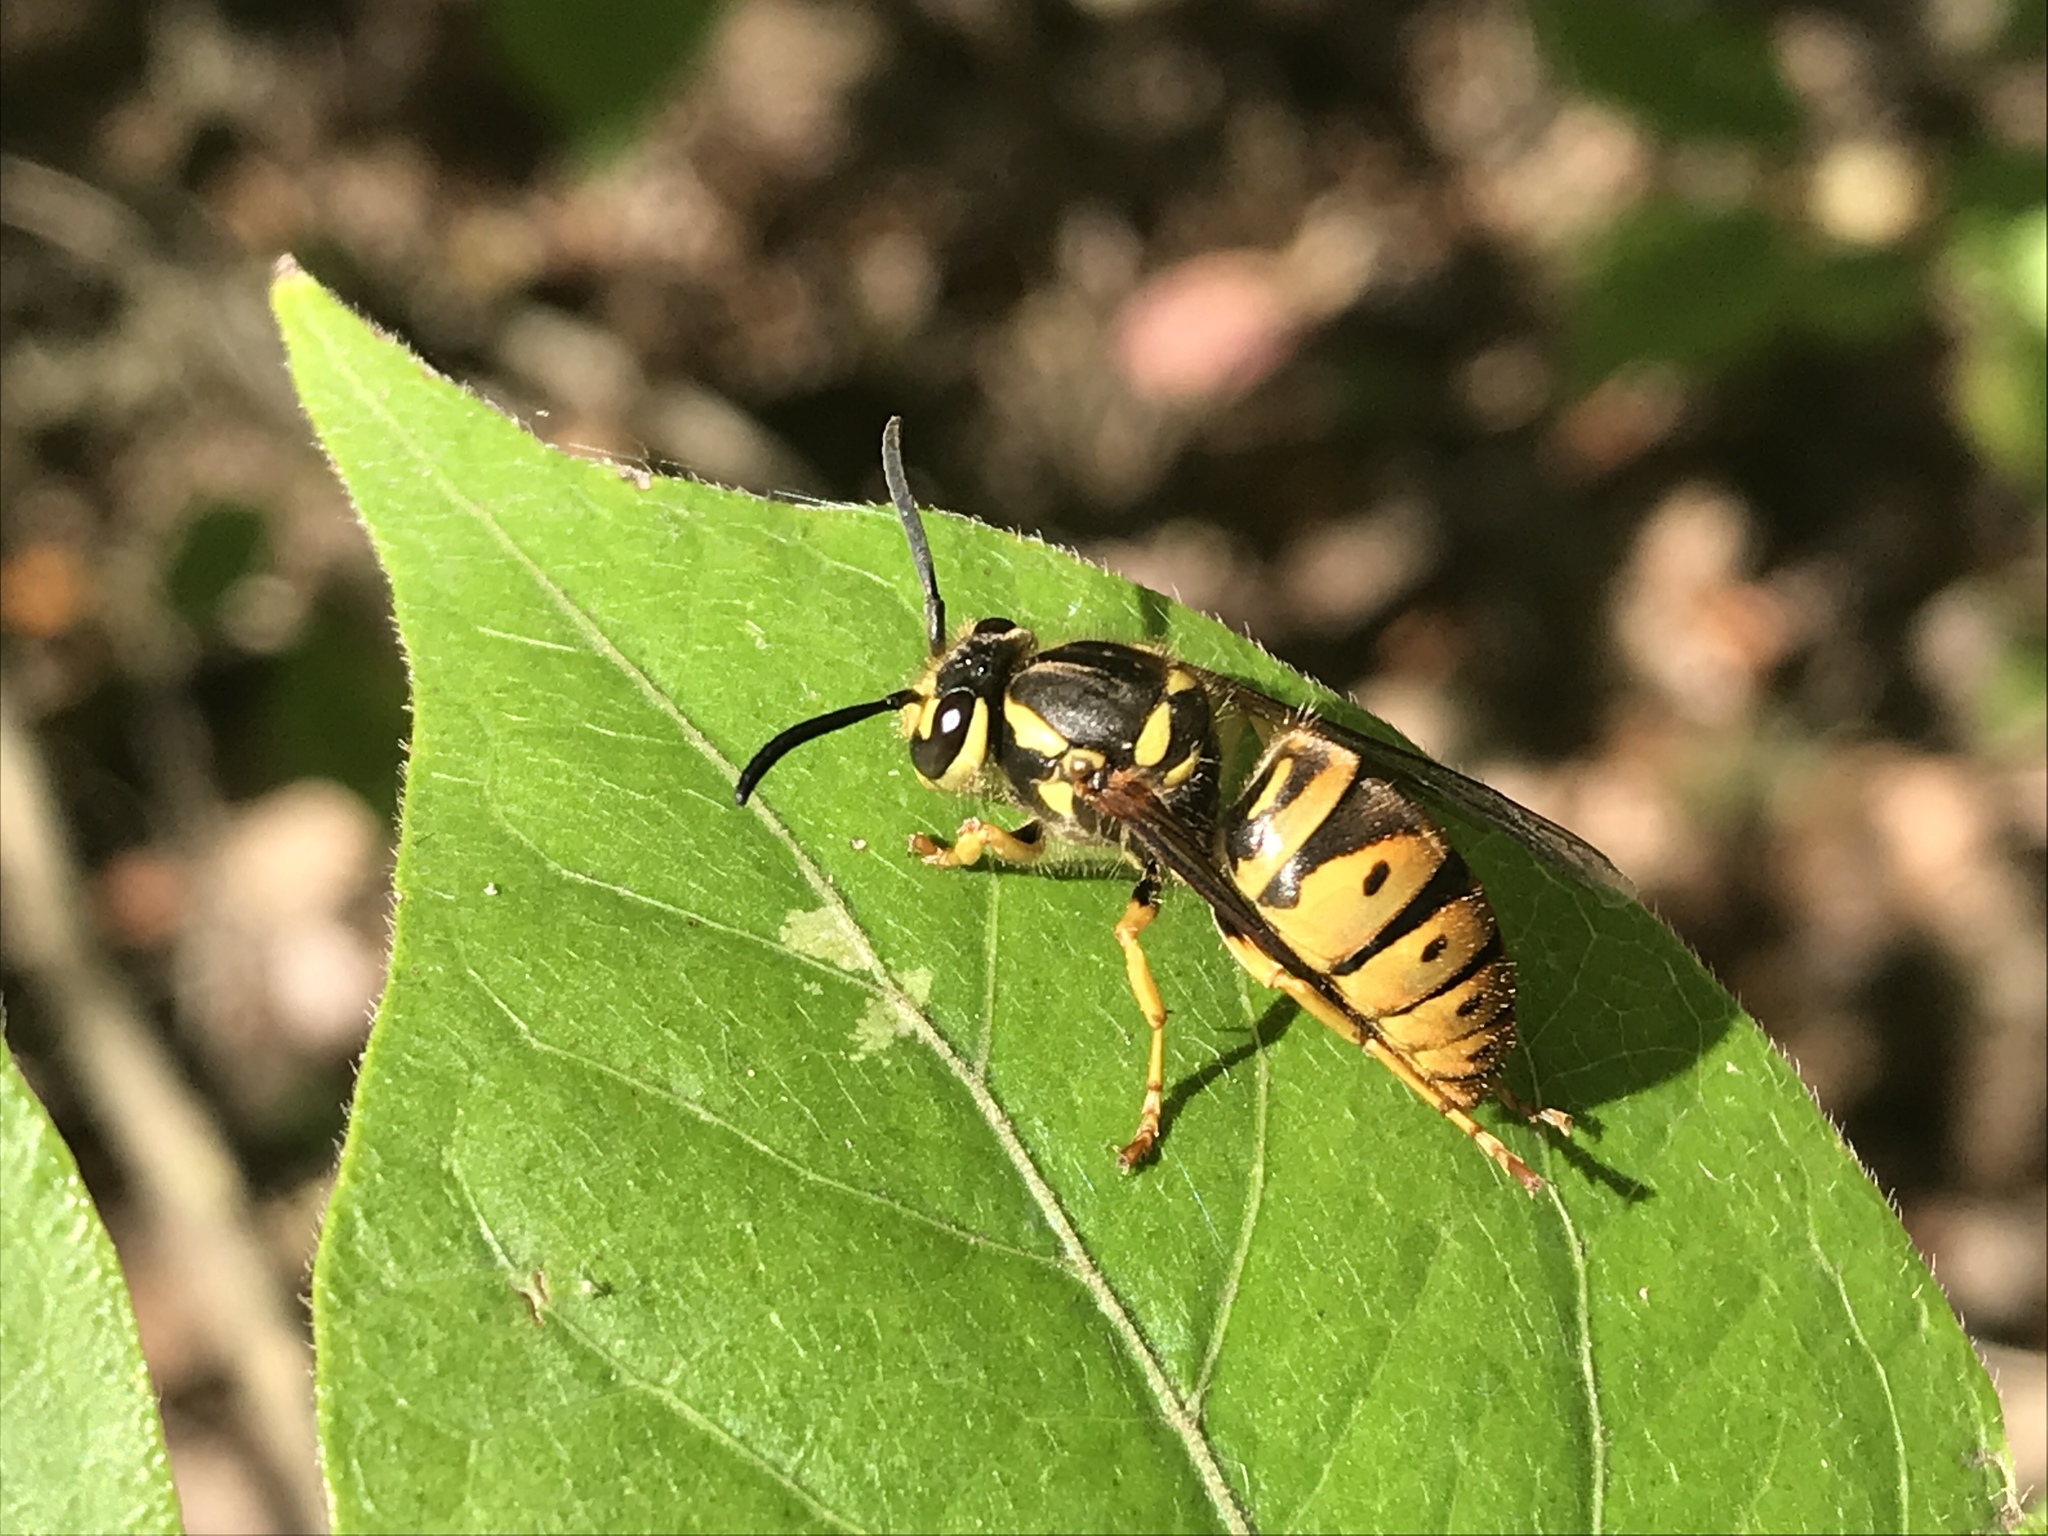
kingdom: Animalia
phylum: Arthropoda
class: Insecta
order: Hymenoptera
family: Vespidae
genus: Vespula
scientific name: Vespula maculifrons
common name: Eastern yellowjacket
